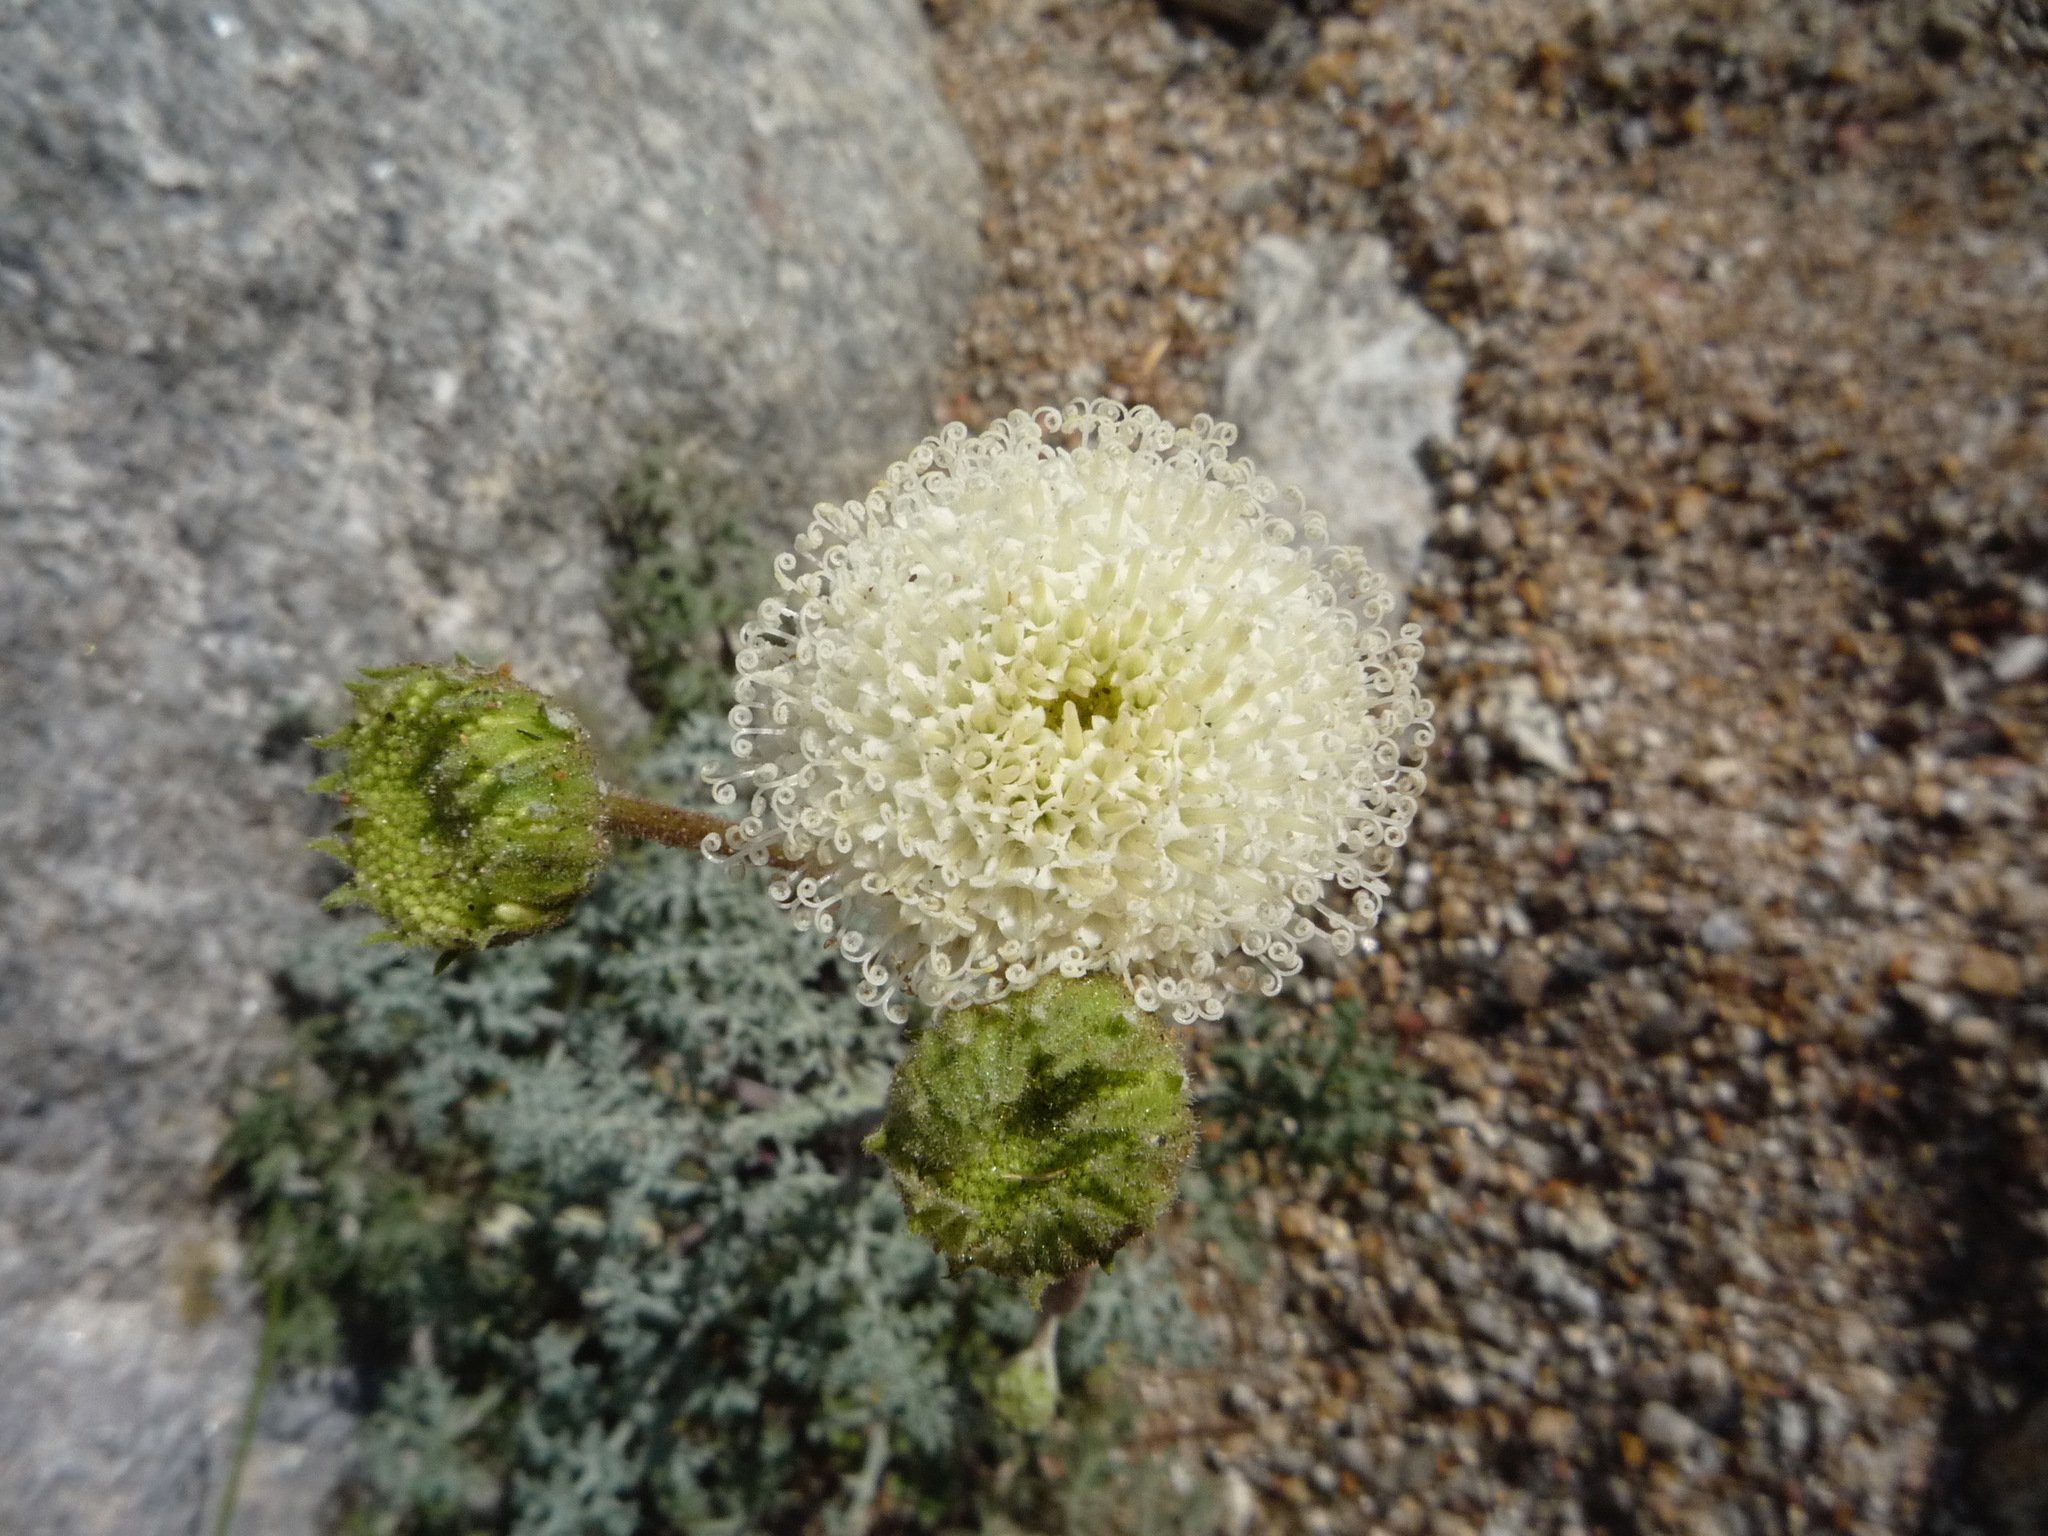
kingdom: Plantae
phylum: Tracheophyta
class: Magnoliopsida
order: Asterales
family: Asteraceae
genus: Chaenactis
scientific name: Chaenactis artemisiifolia
